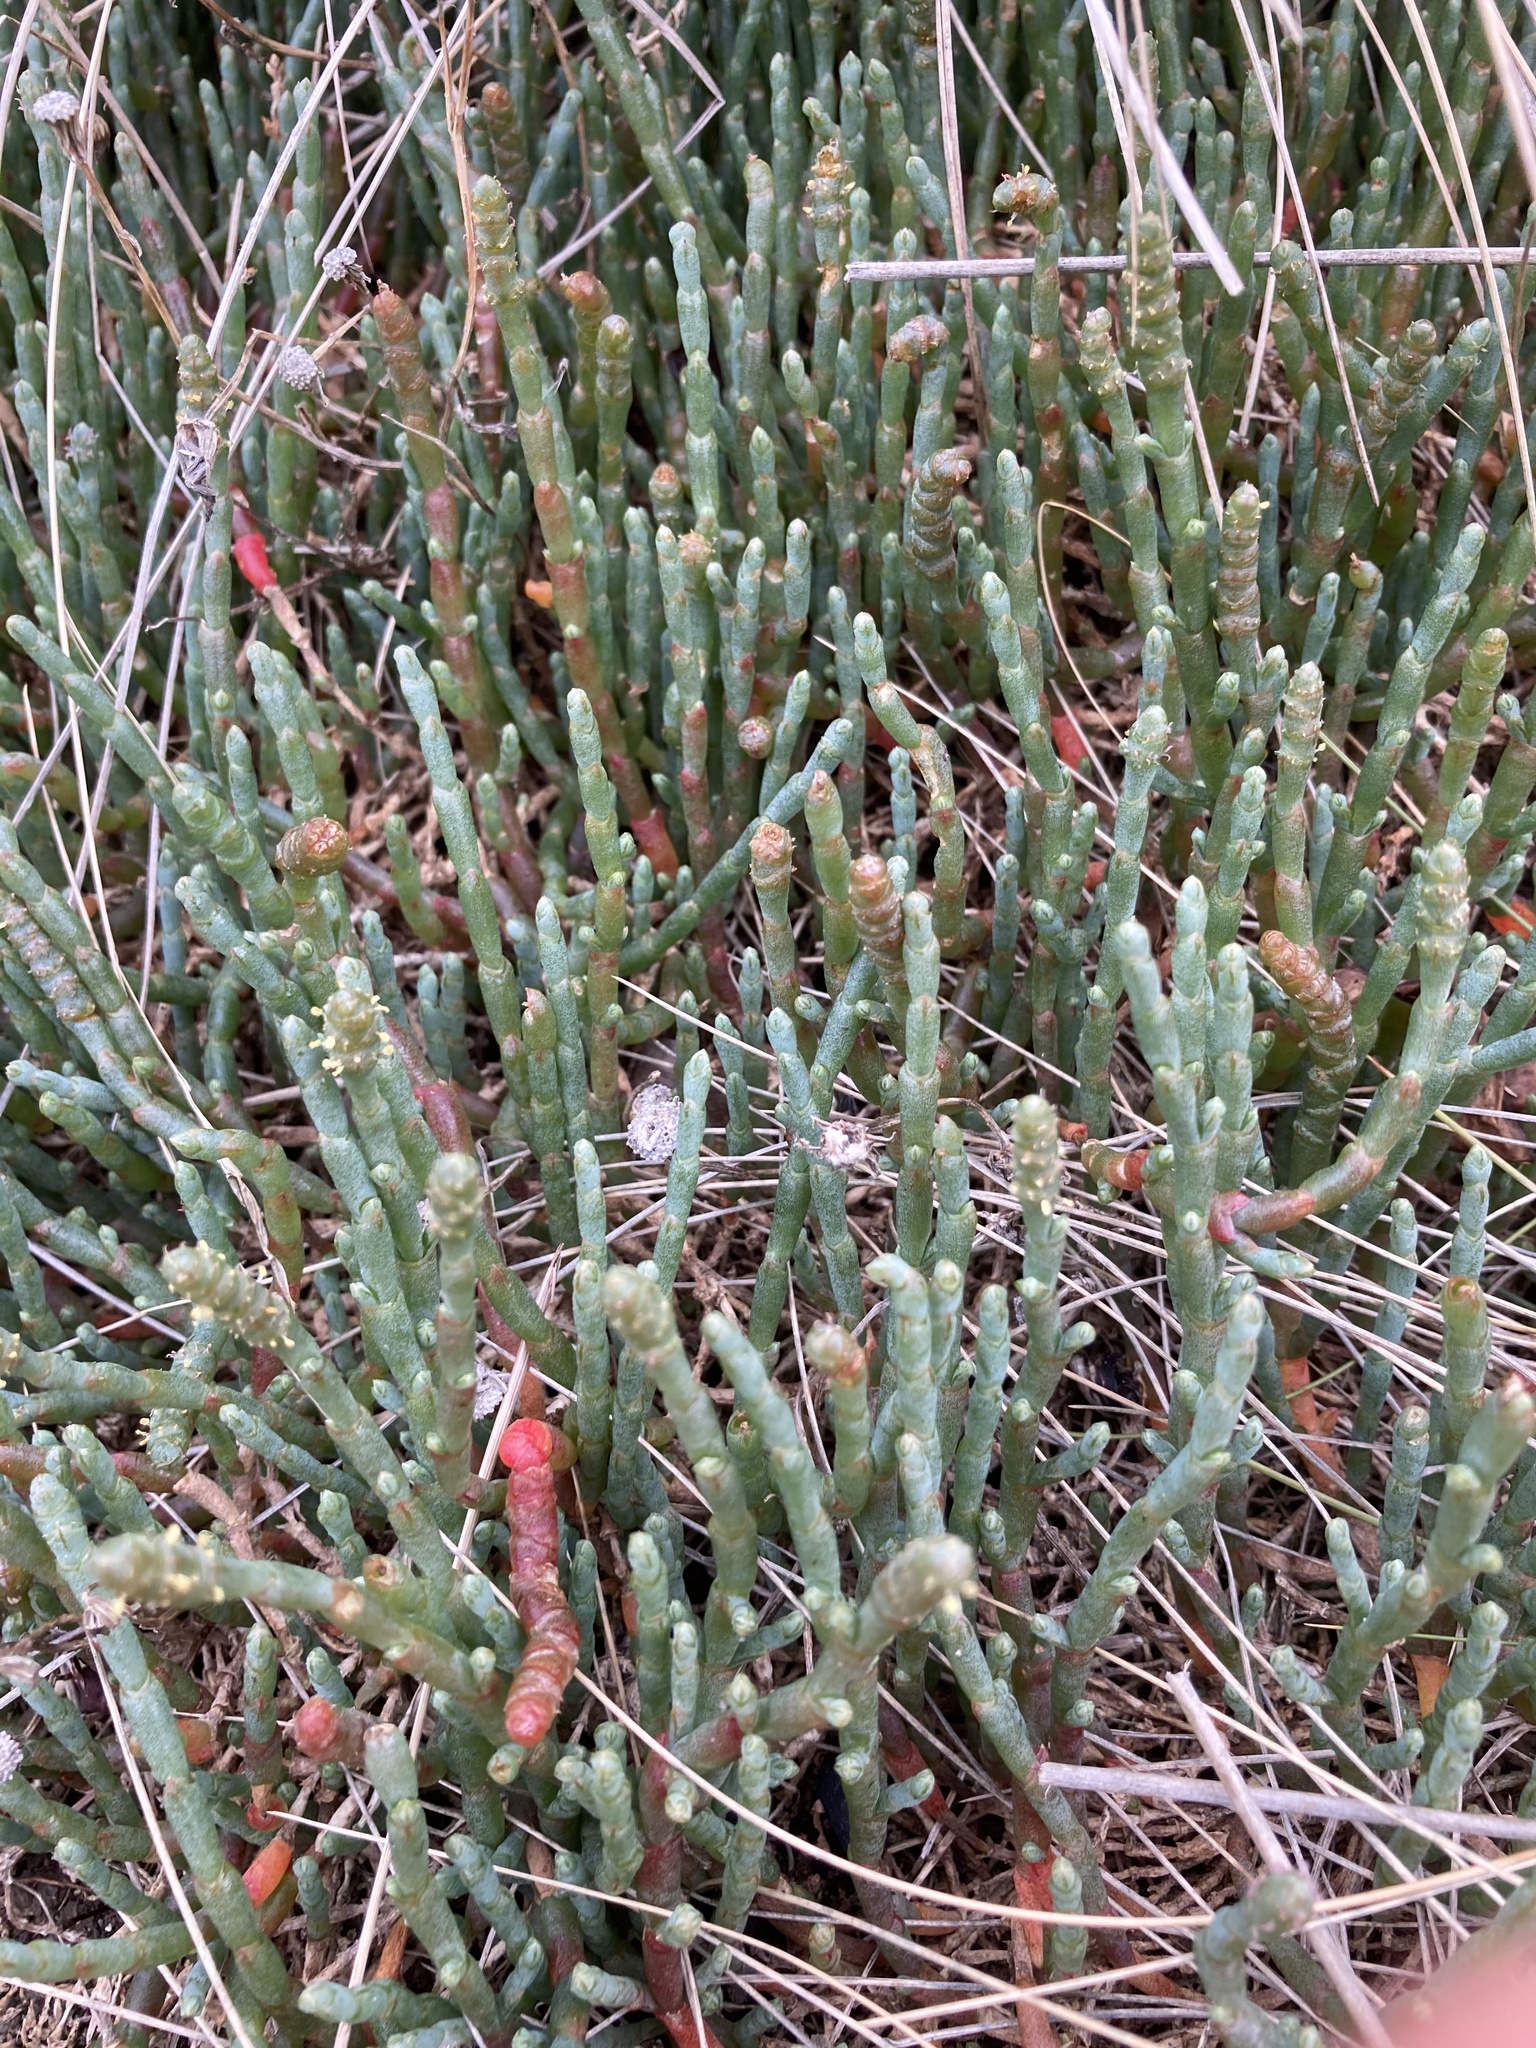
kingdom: Plantae
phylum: Tracheophyta
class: Magnoliopsida
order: Caryophyllales
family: Amaranthaceae
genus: Salicornia
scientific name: Salicornia quinqueflora
